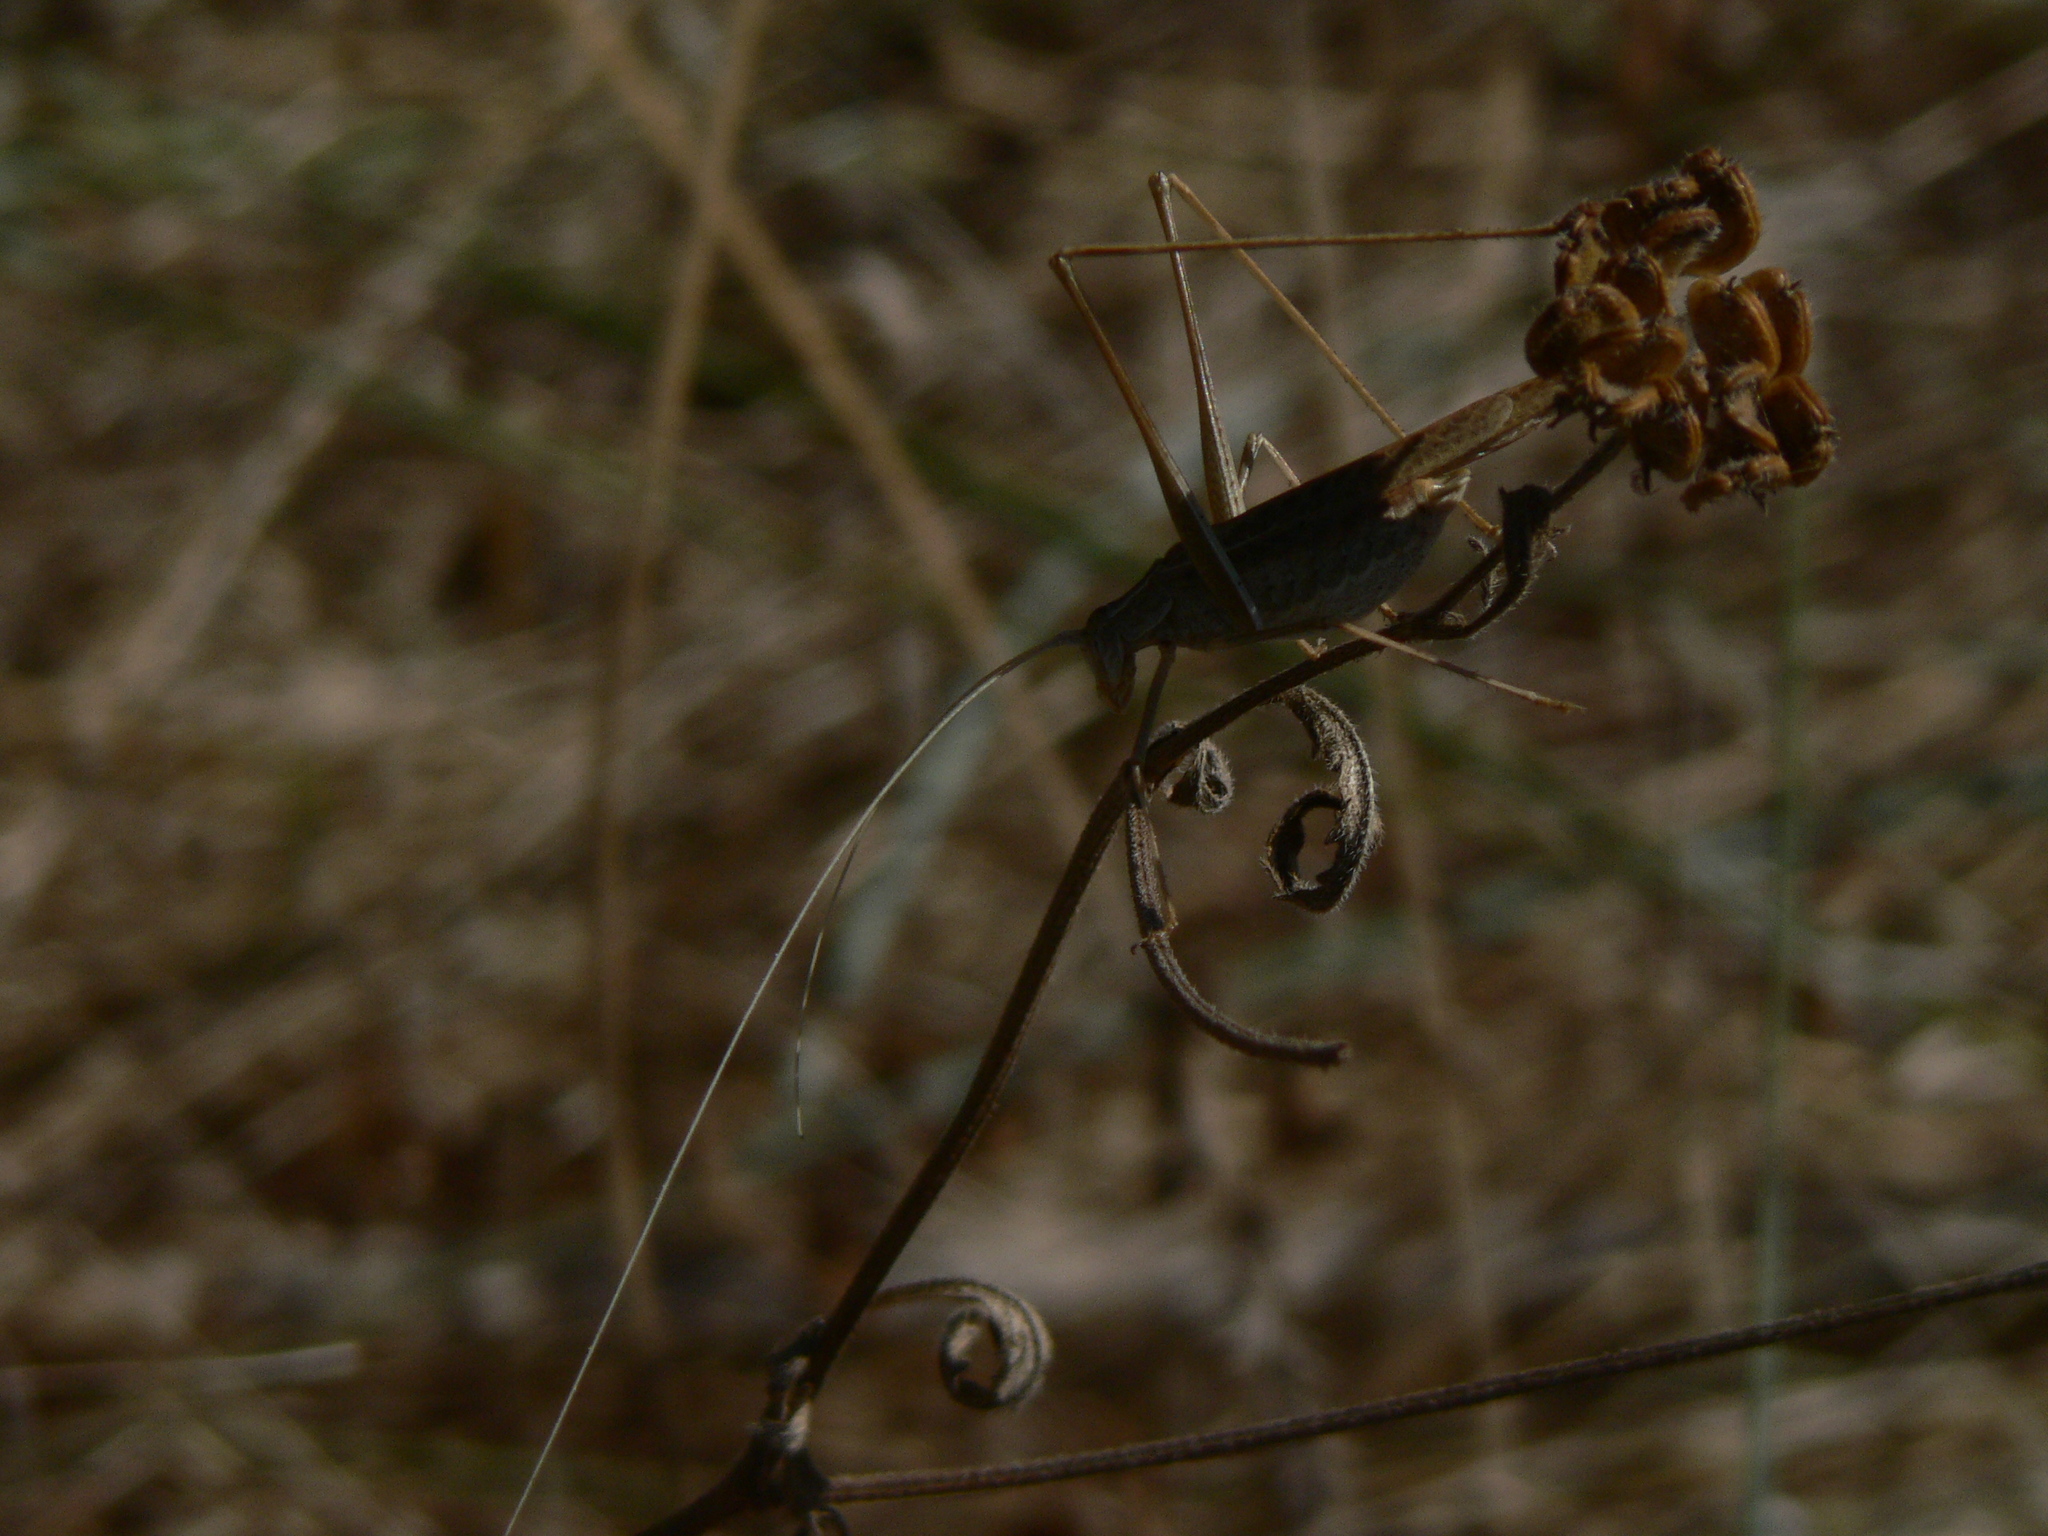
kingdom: Animalia
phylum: Arthropoda
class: Insecta
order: Orthoptera
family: Tettigoniidae
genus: Tylopsis
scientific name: Tylopsis lilifolia
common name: Lily bush-cricket
